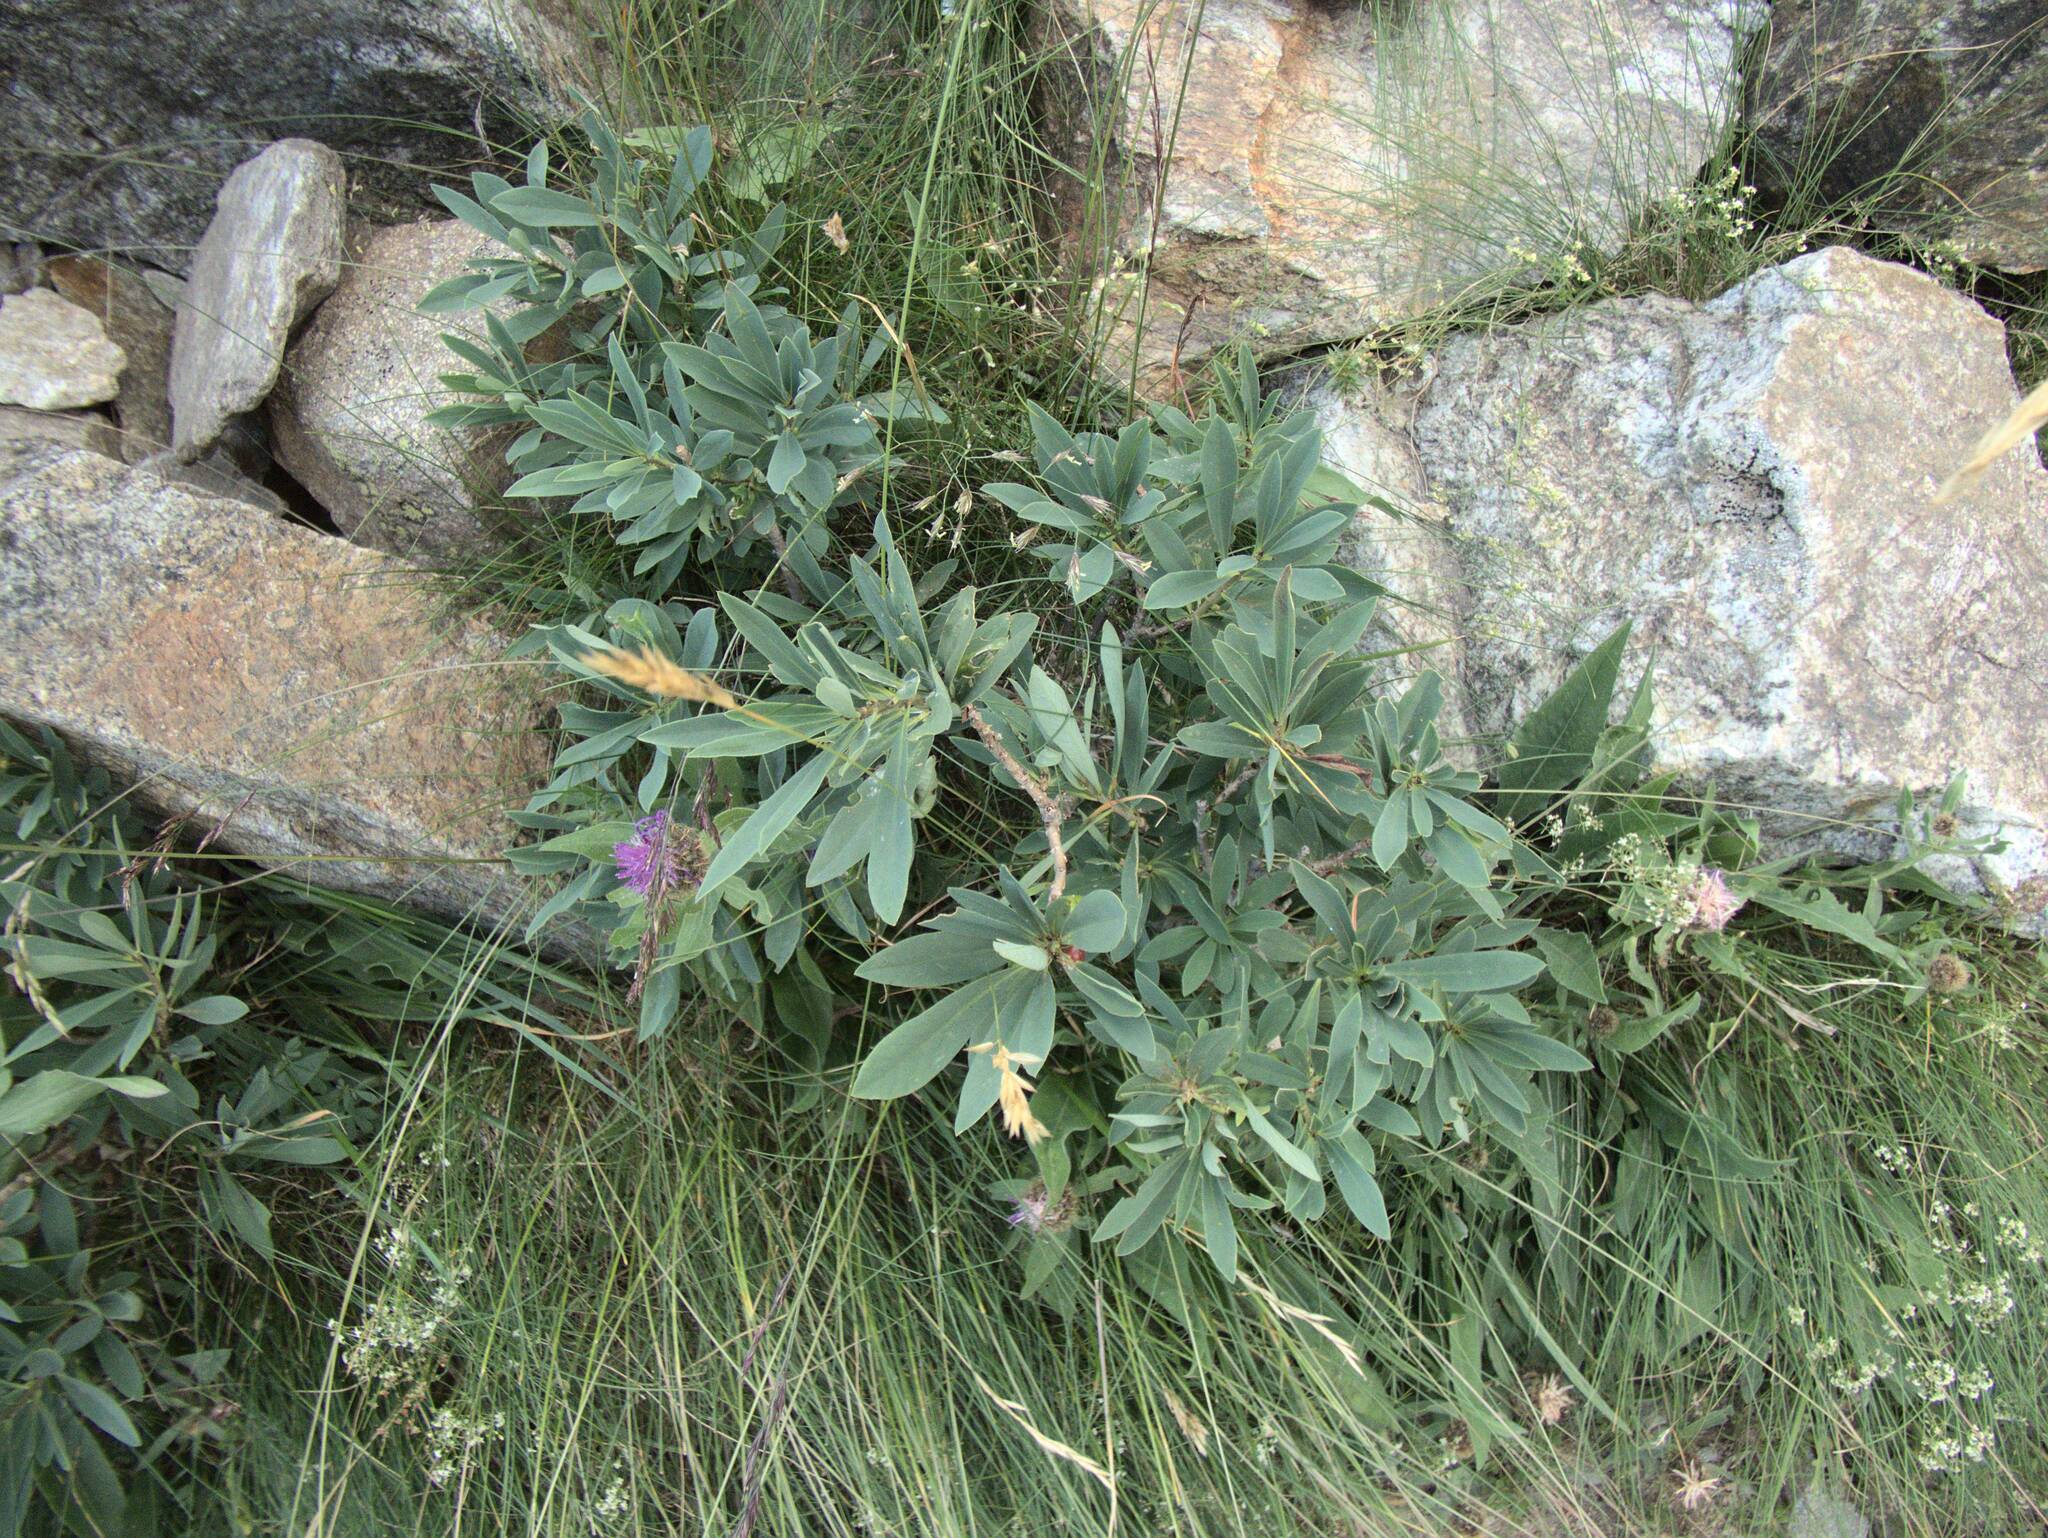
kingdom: Plantae
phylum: Tracheophyta
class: Magnoliopsida
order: Malvales
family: Thymelaeaceae
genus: Daphne
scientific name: Daphne mezereum
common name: Mezereon
